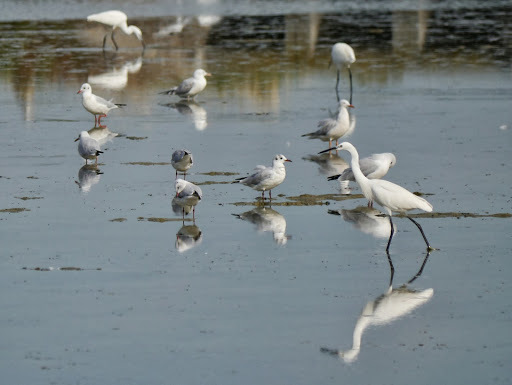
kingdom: Animalia
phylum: Chordata
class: Aves
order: Pelecaniformes
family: Ardeidae
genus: Egretta
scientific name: Egretta garzetta
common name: Little egret
